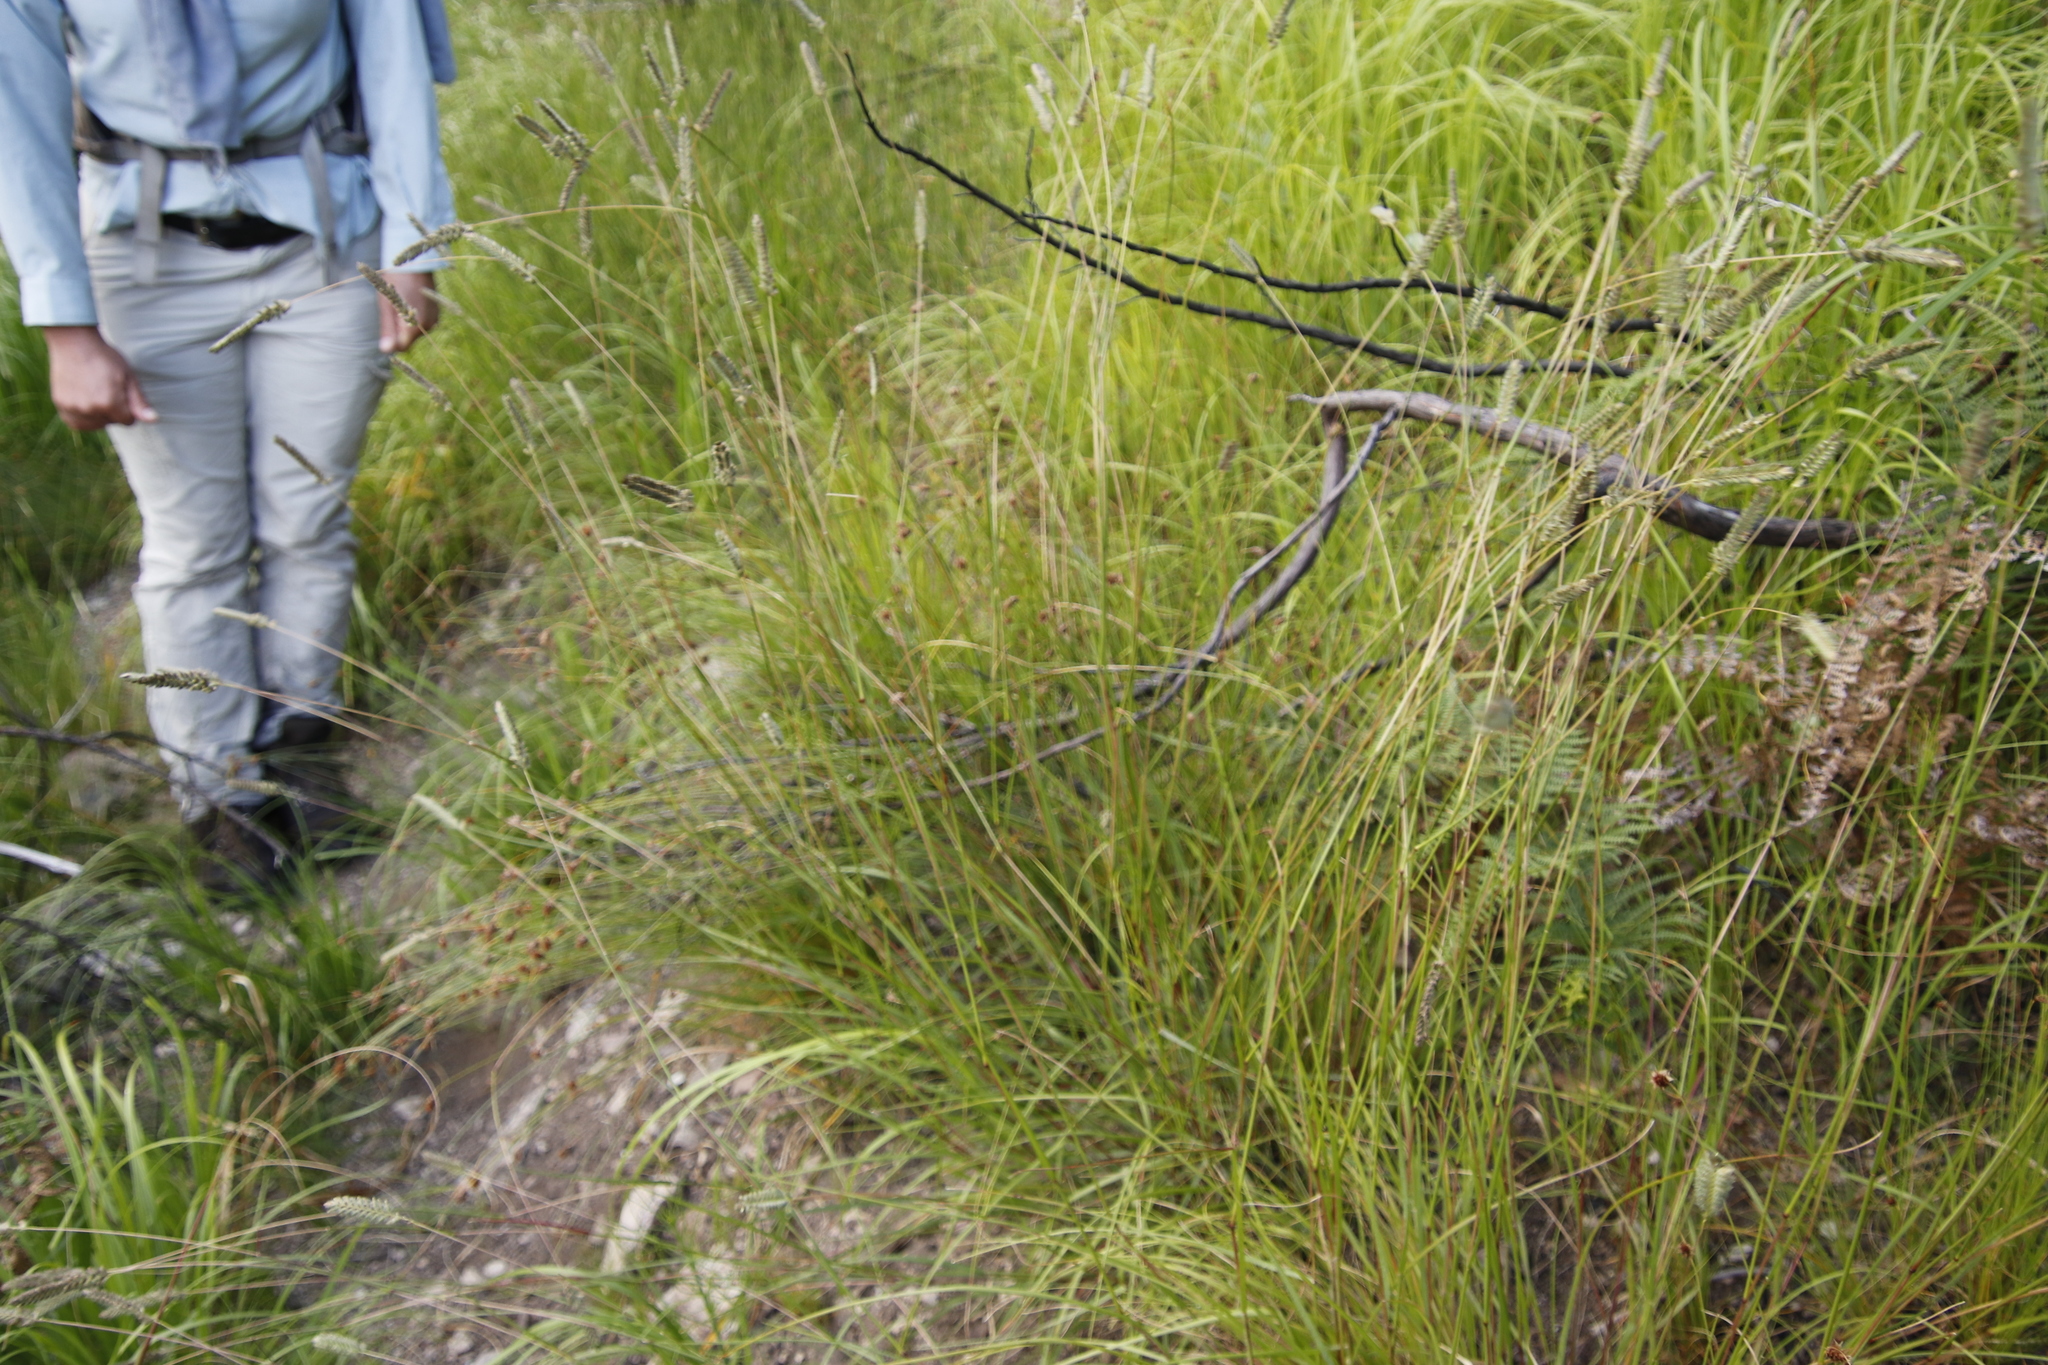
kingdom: Plantae
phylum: Tracheophyta
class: Liliopsida
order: Poales
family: Poaceae
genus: Tribolium
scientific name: Tribolium brachystachyum
